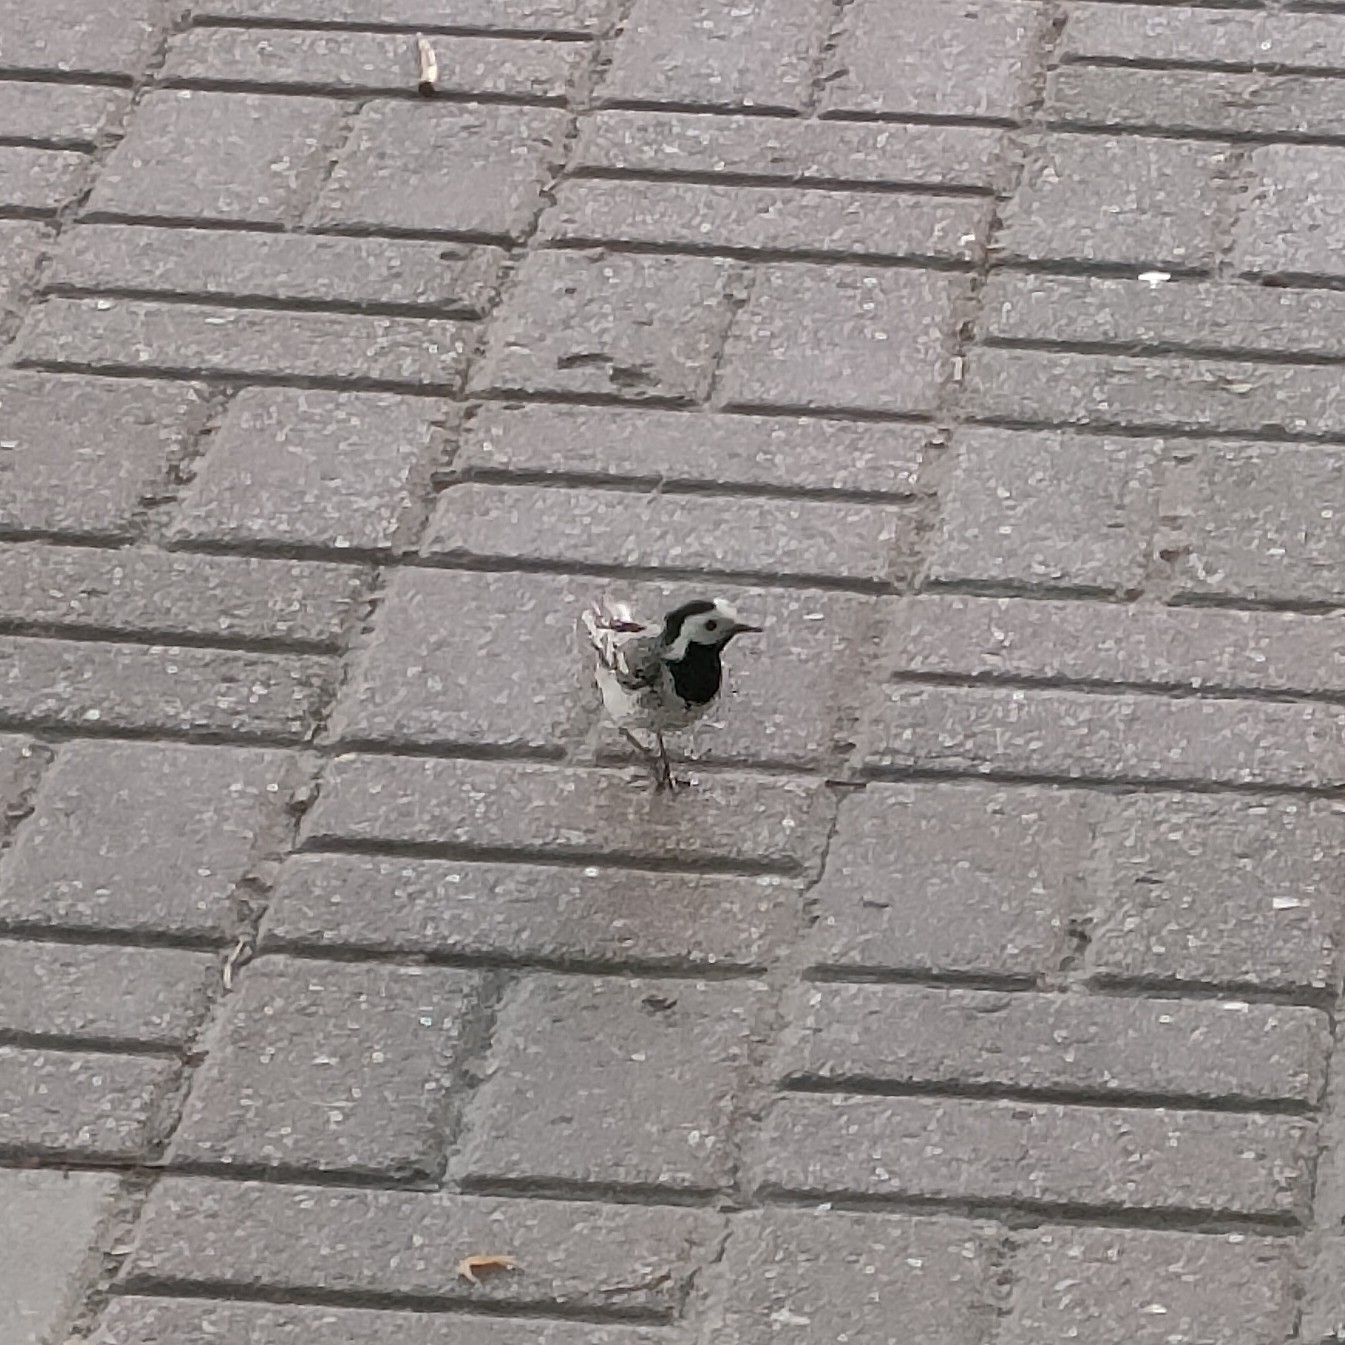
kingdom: Animalia
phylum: Chordata
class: Aves
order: Passeriformes
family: Motacillidae
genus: Motacilla
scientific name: Motacilla alba
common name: White wagtail
